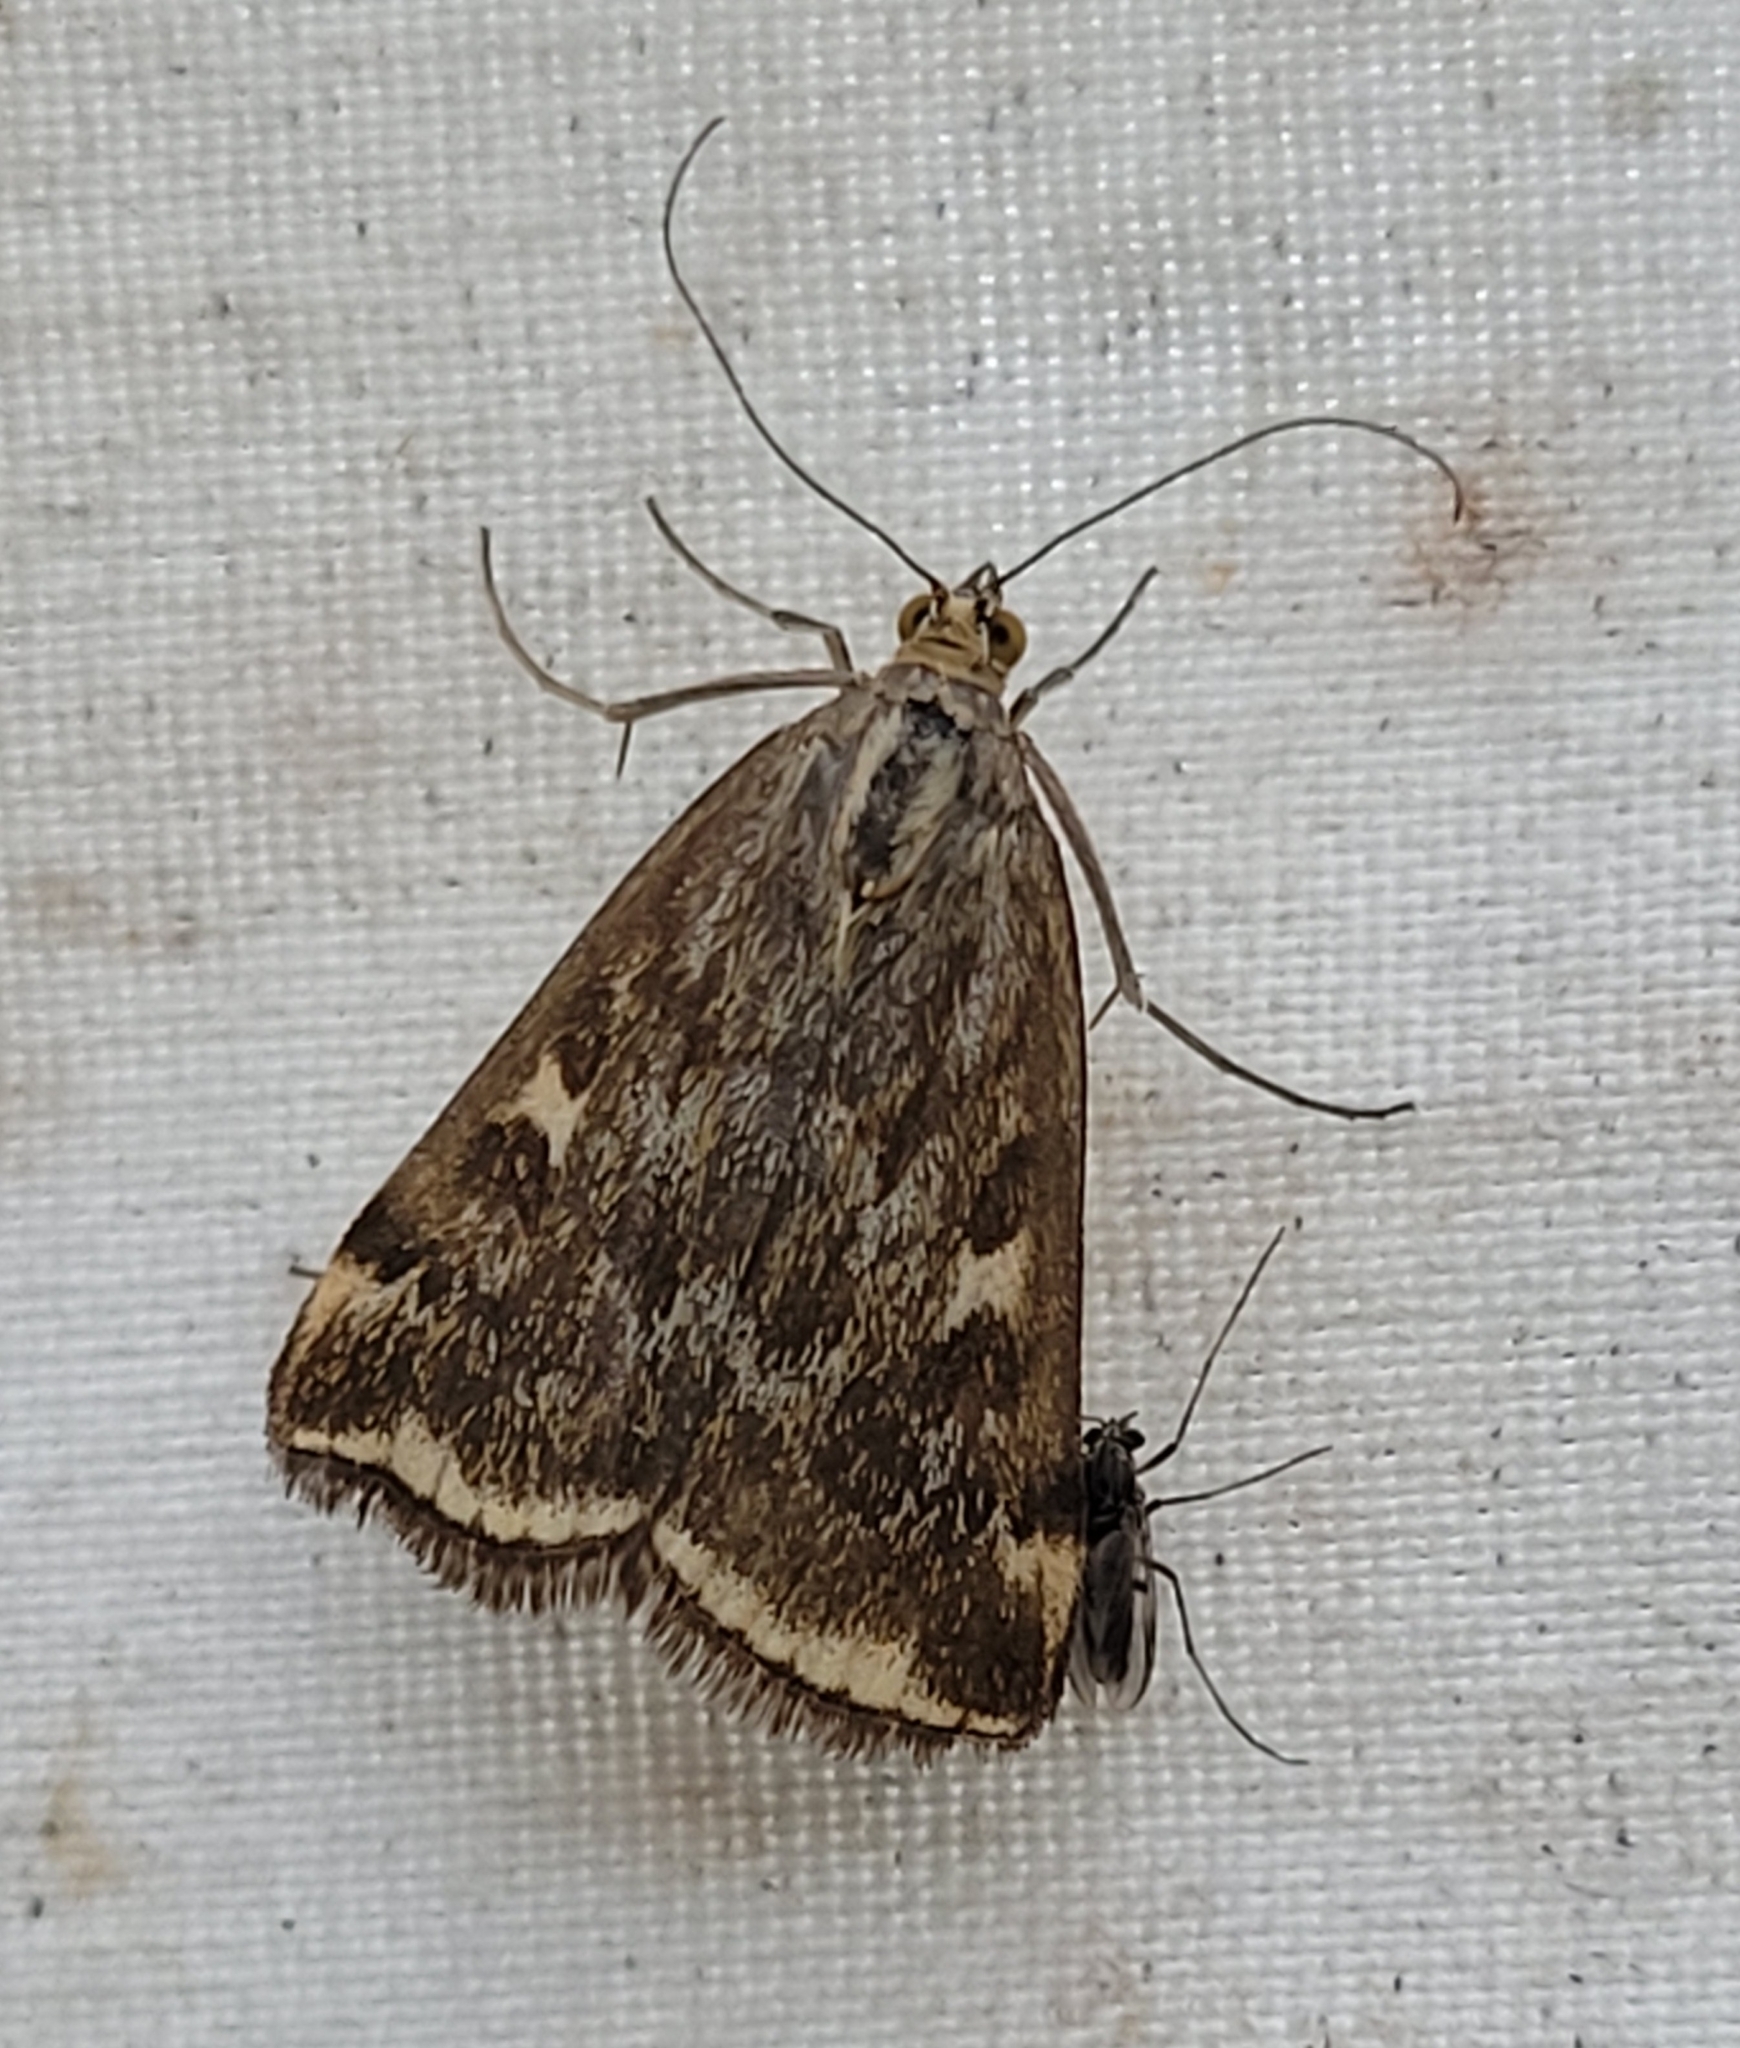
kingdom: Animalia
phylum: Arthropoda
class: Insecta
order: Lepidoptera
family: Crambidae
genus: Loxostege
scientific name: Loxostege
